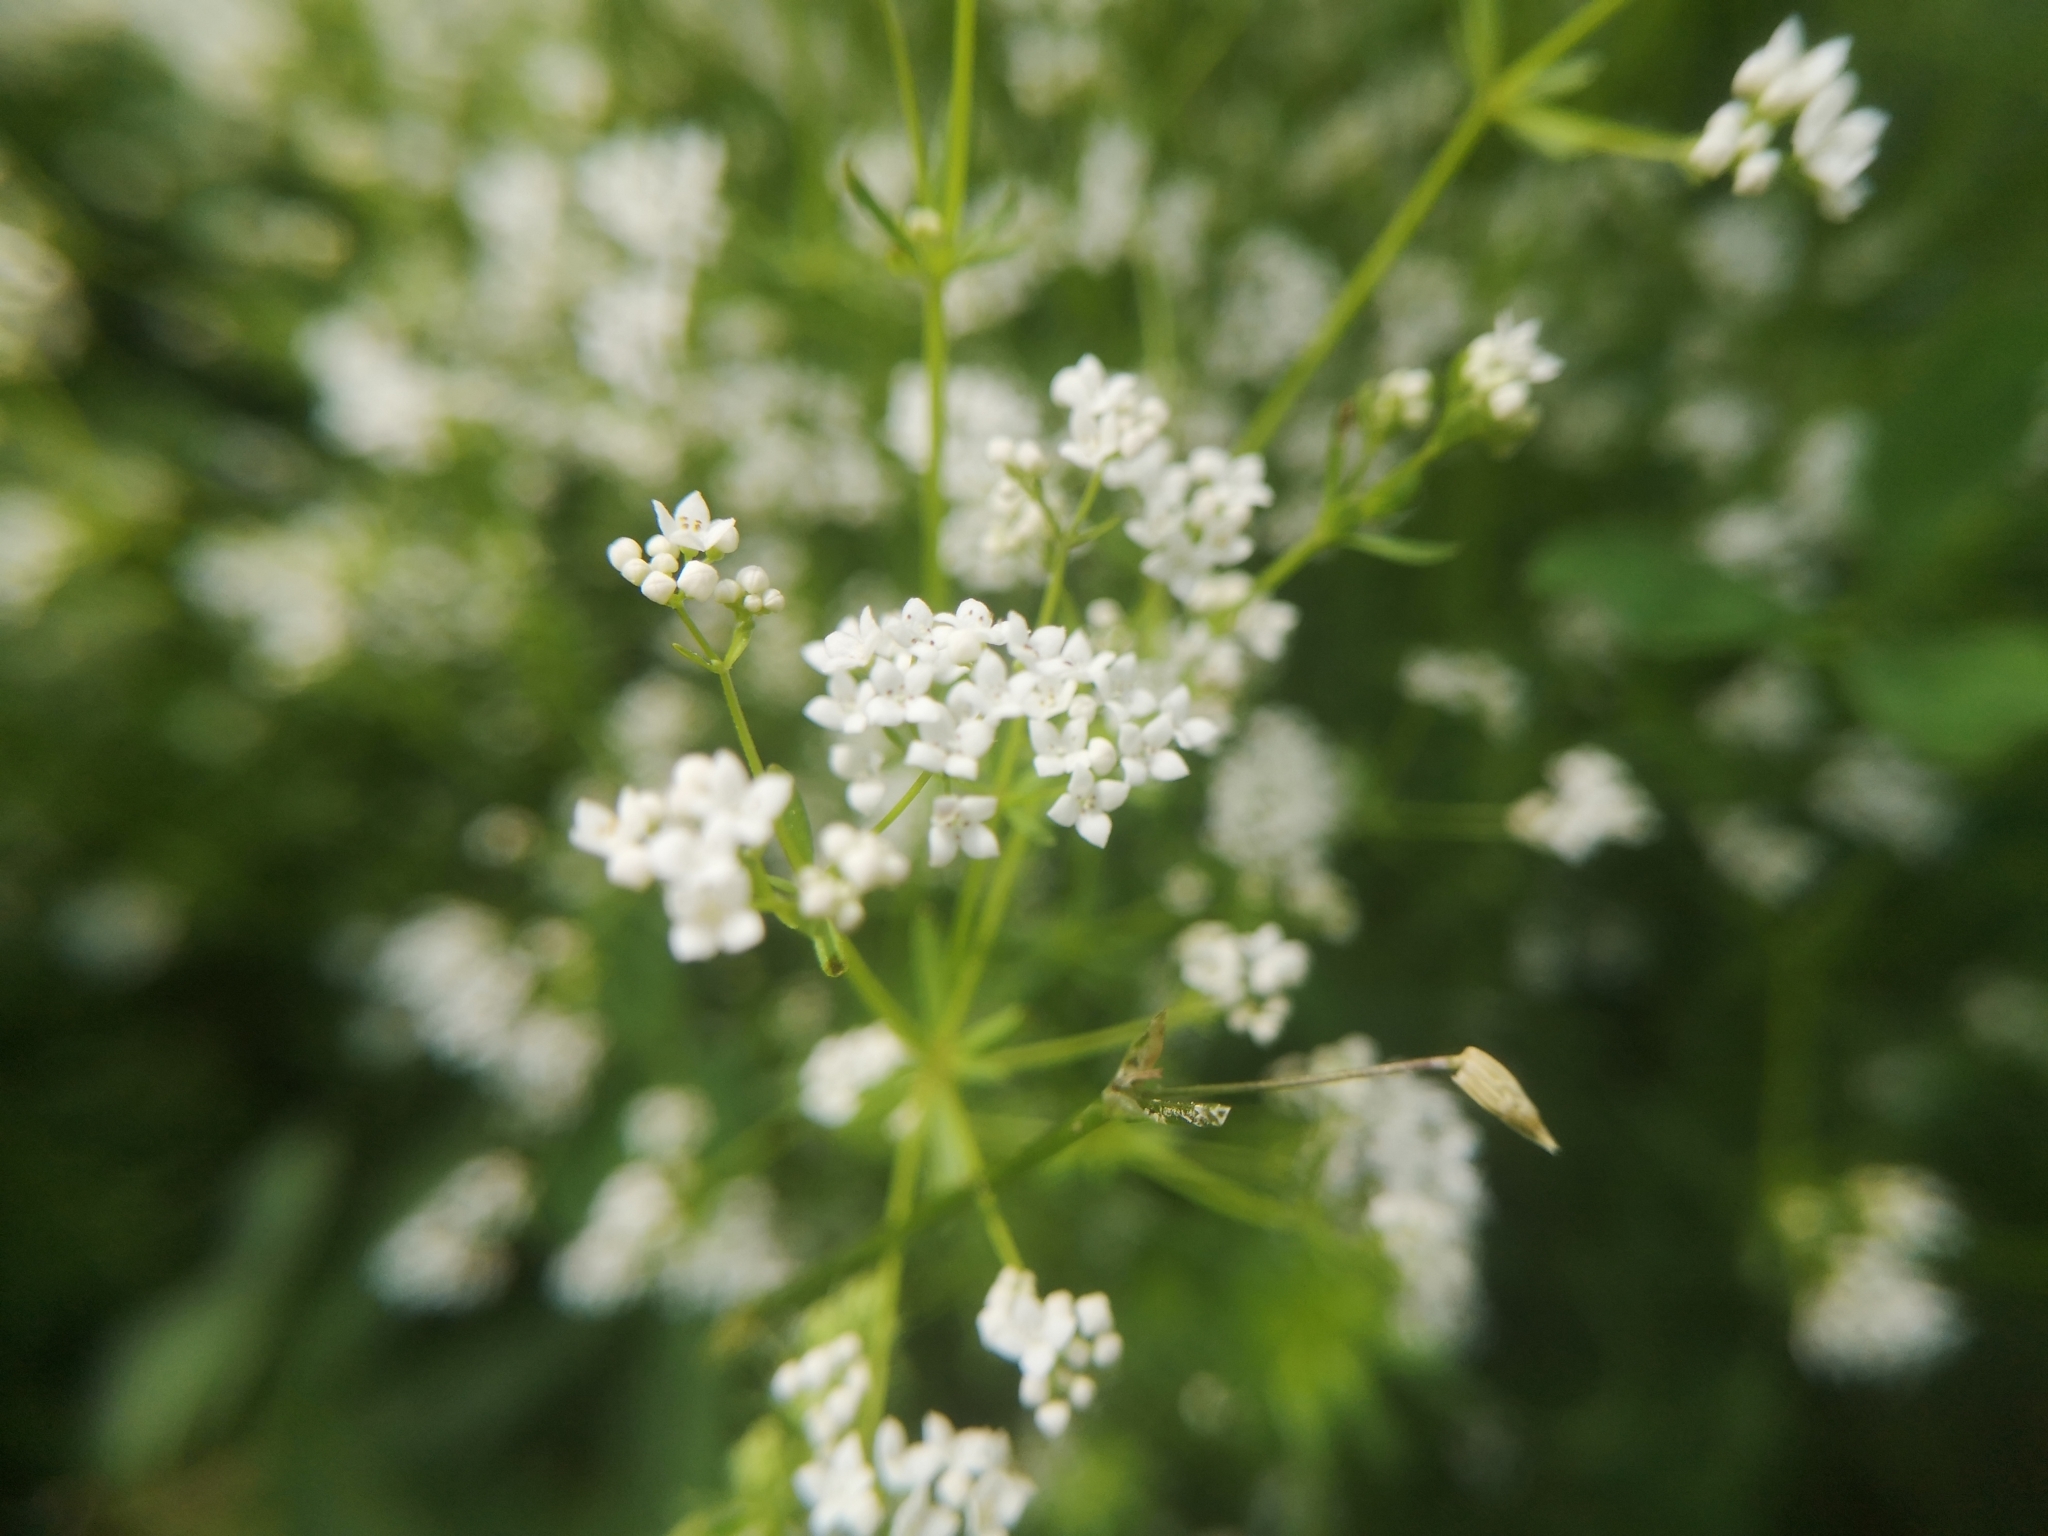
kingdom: Plantae
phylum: Tracheophyta
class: Magnoliopsida
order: Gentianales
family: Rubiaceae
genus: Galium
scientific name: Galium palustre
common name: Common marsh-bedstraw
